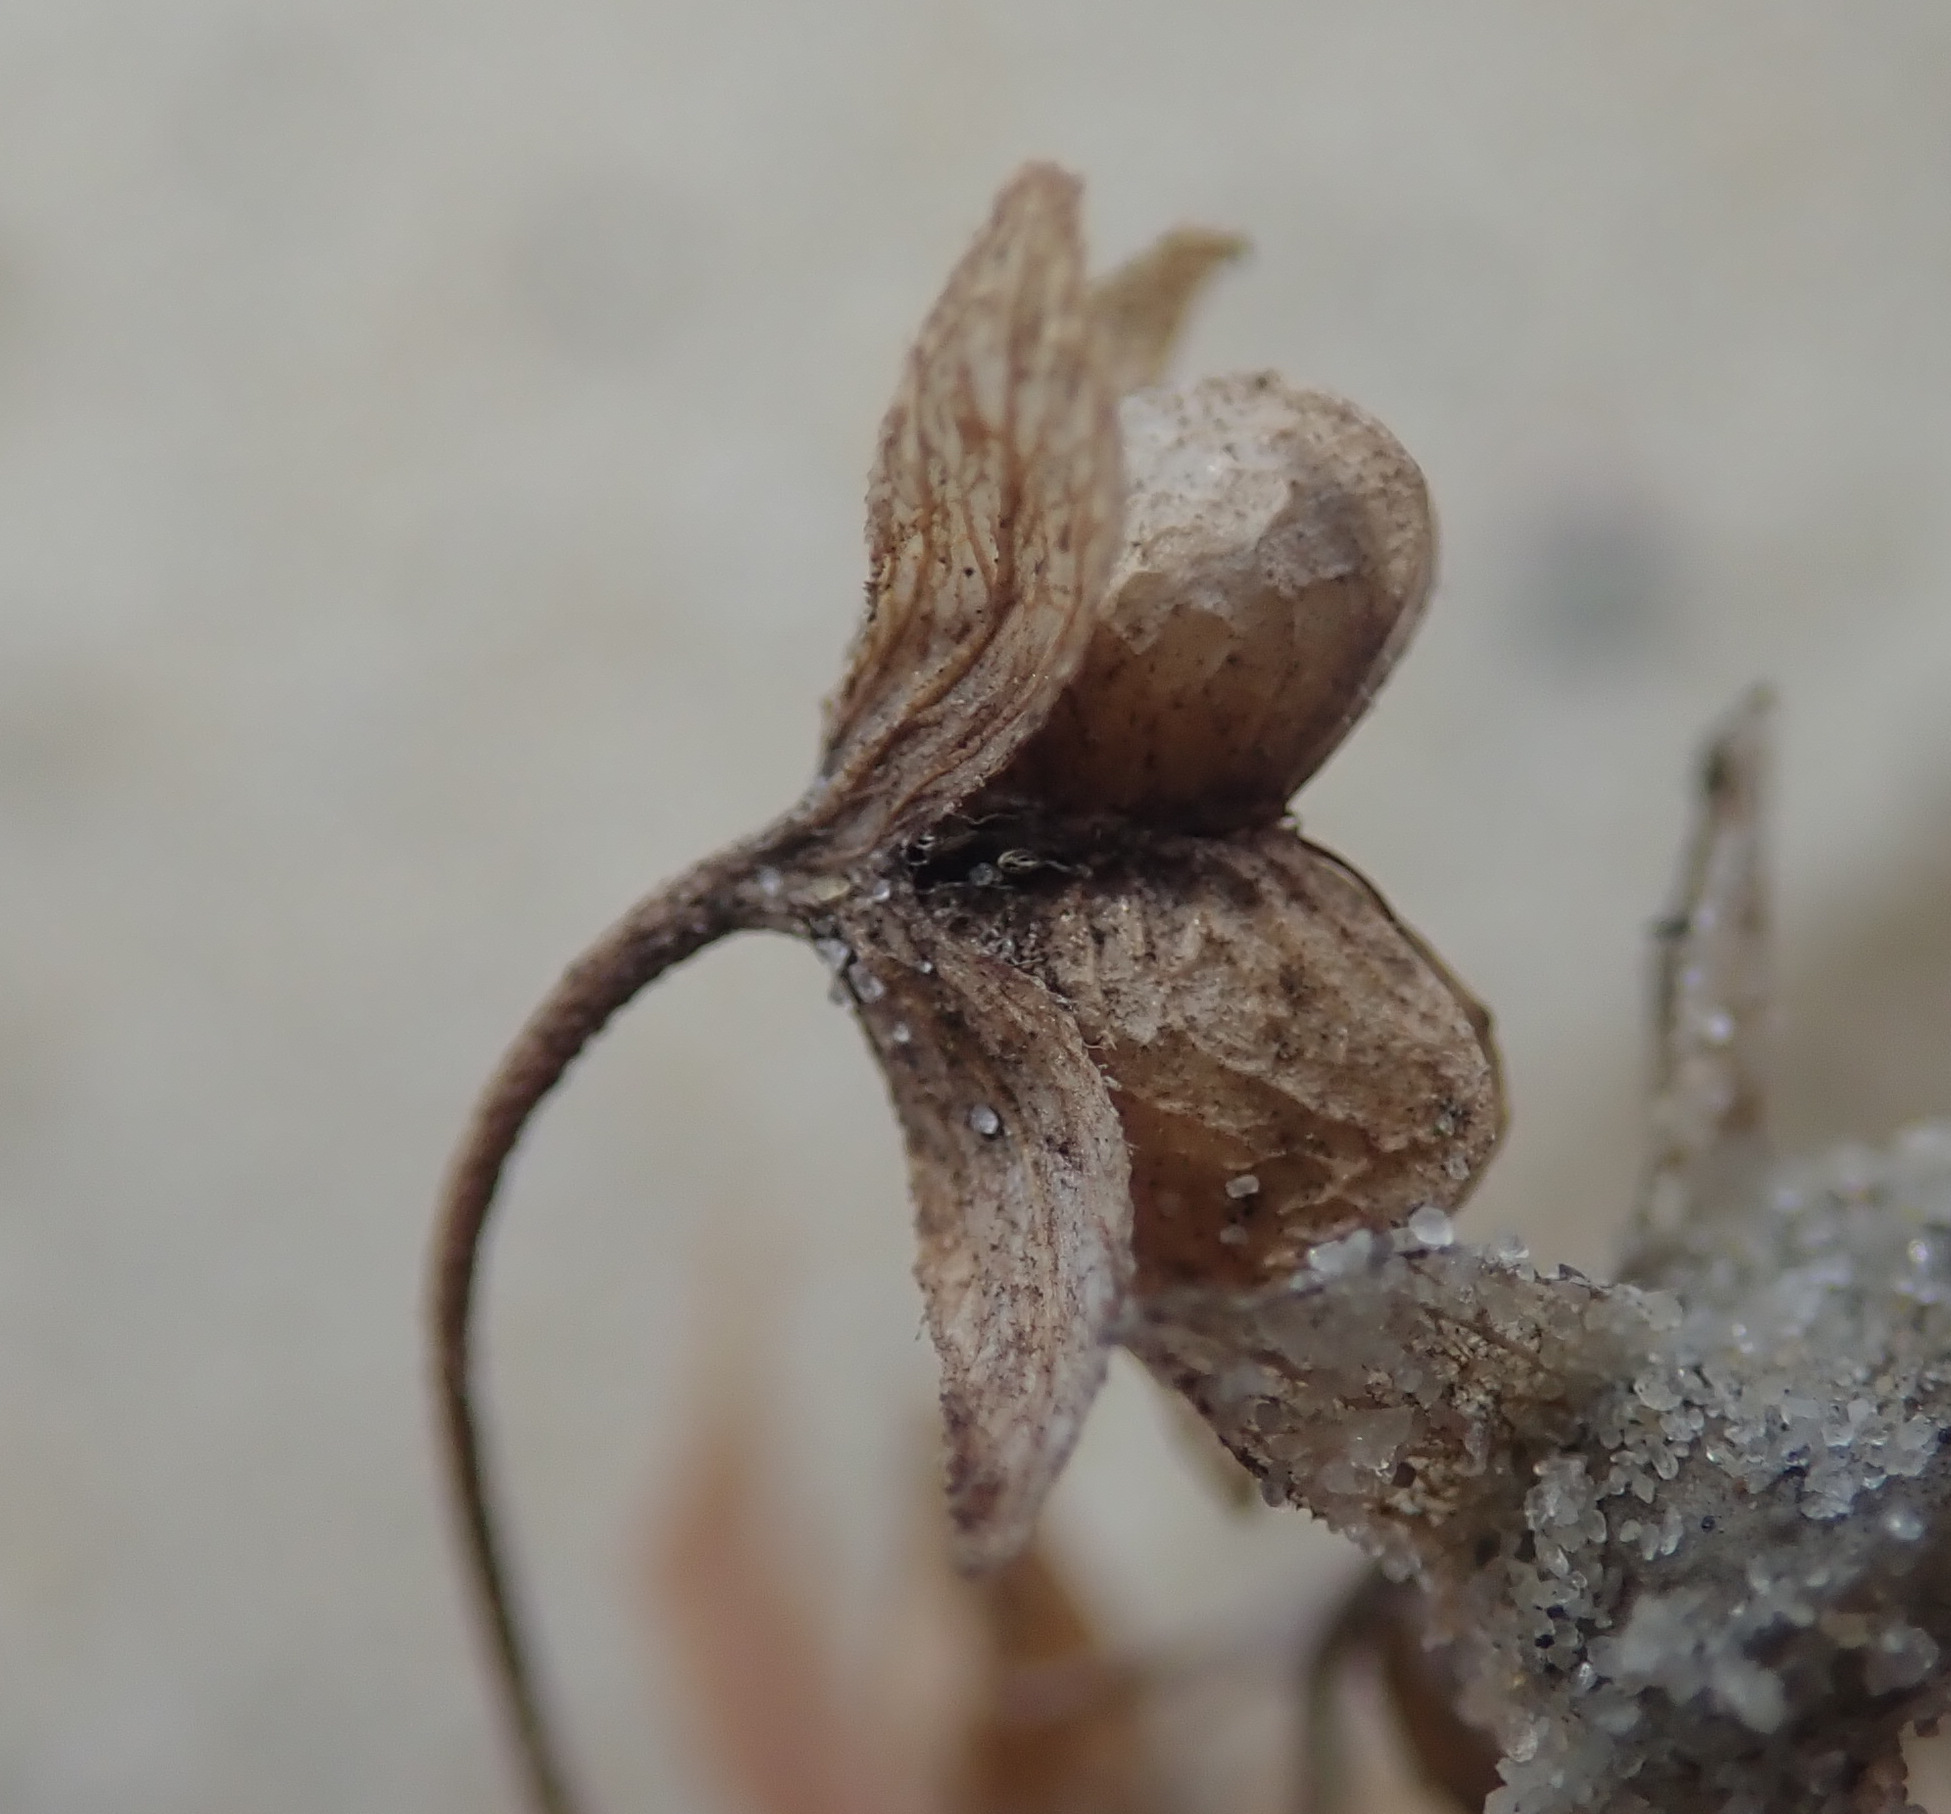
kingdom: Plantae
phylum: Tracheophyta
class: Magnoliopsida
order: Lamiales
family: Plantaginaceae
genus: Veronica
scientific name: Veronica persica
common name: Common field-speedwell
